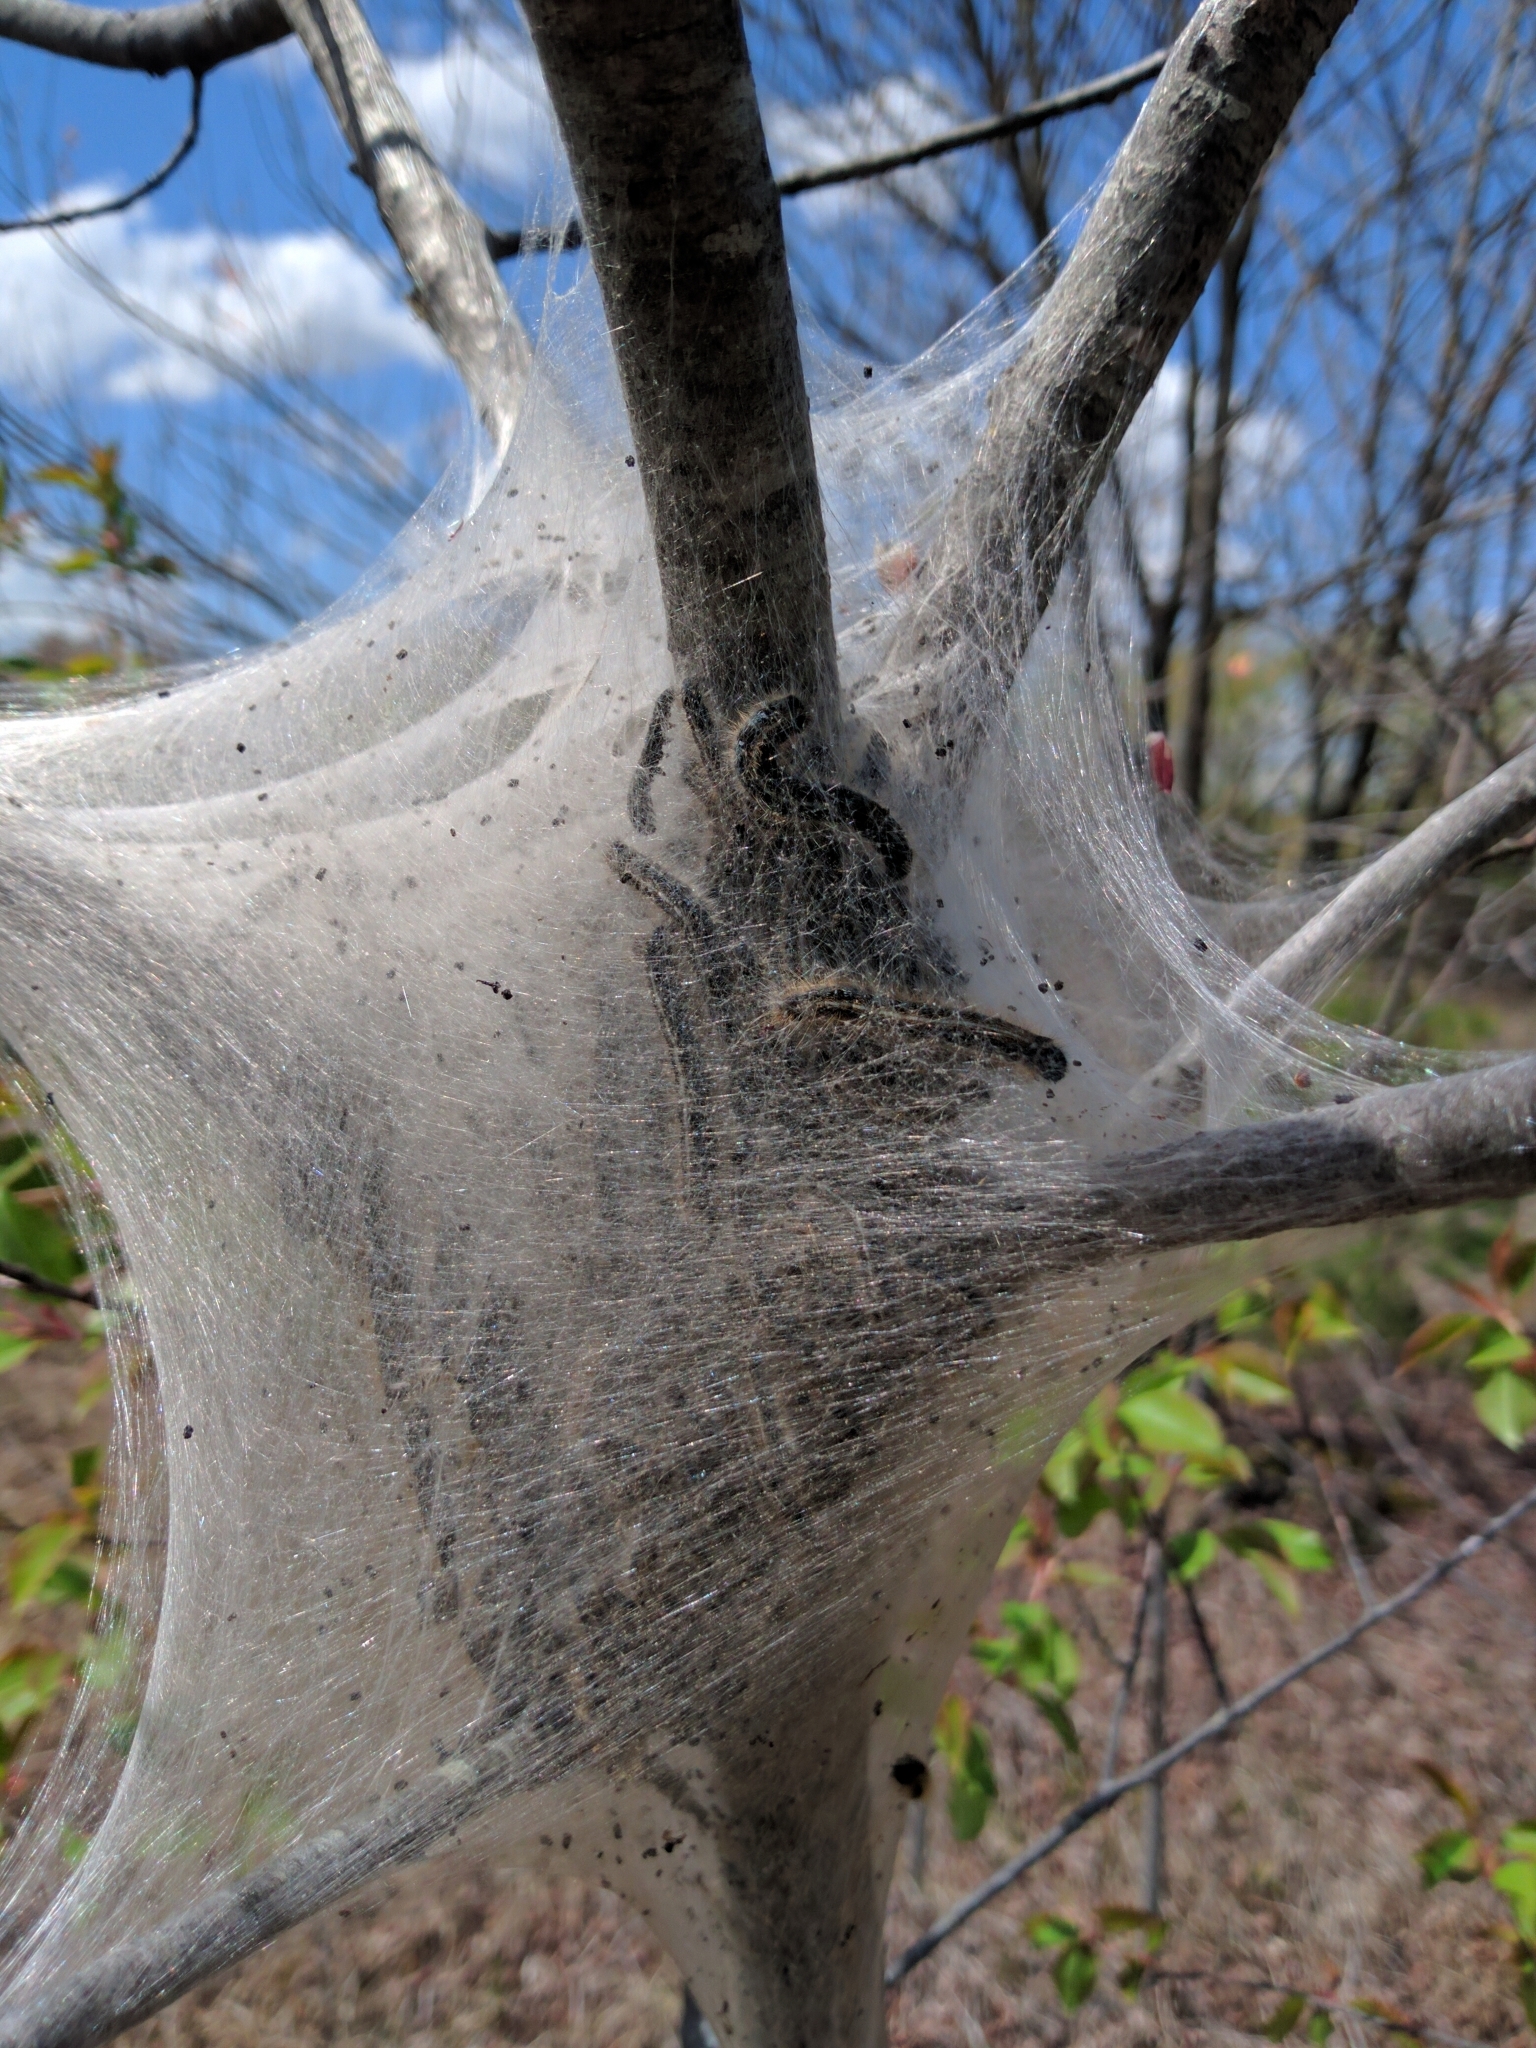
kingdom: Animalia
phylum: Arthropoda
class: Insecta
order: Lepidoptera
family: Lasiocampidae
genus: Malacosoma
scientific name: Malacosoma americana
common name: Eastern tent caterpillar moth
